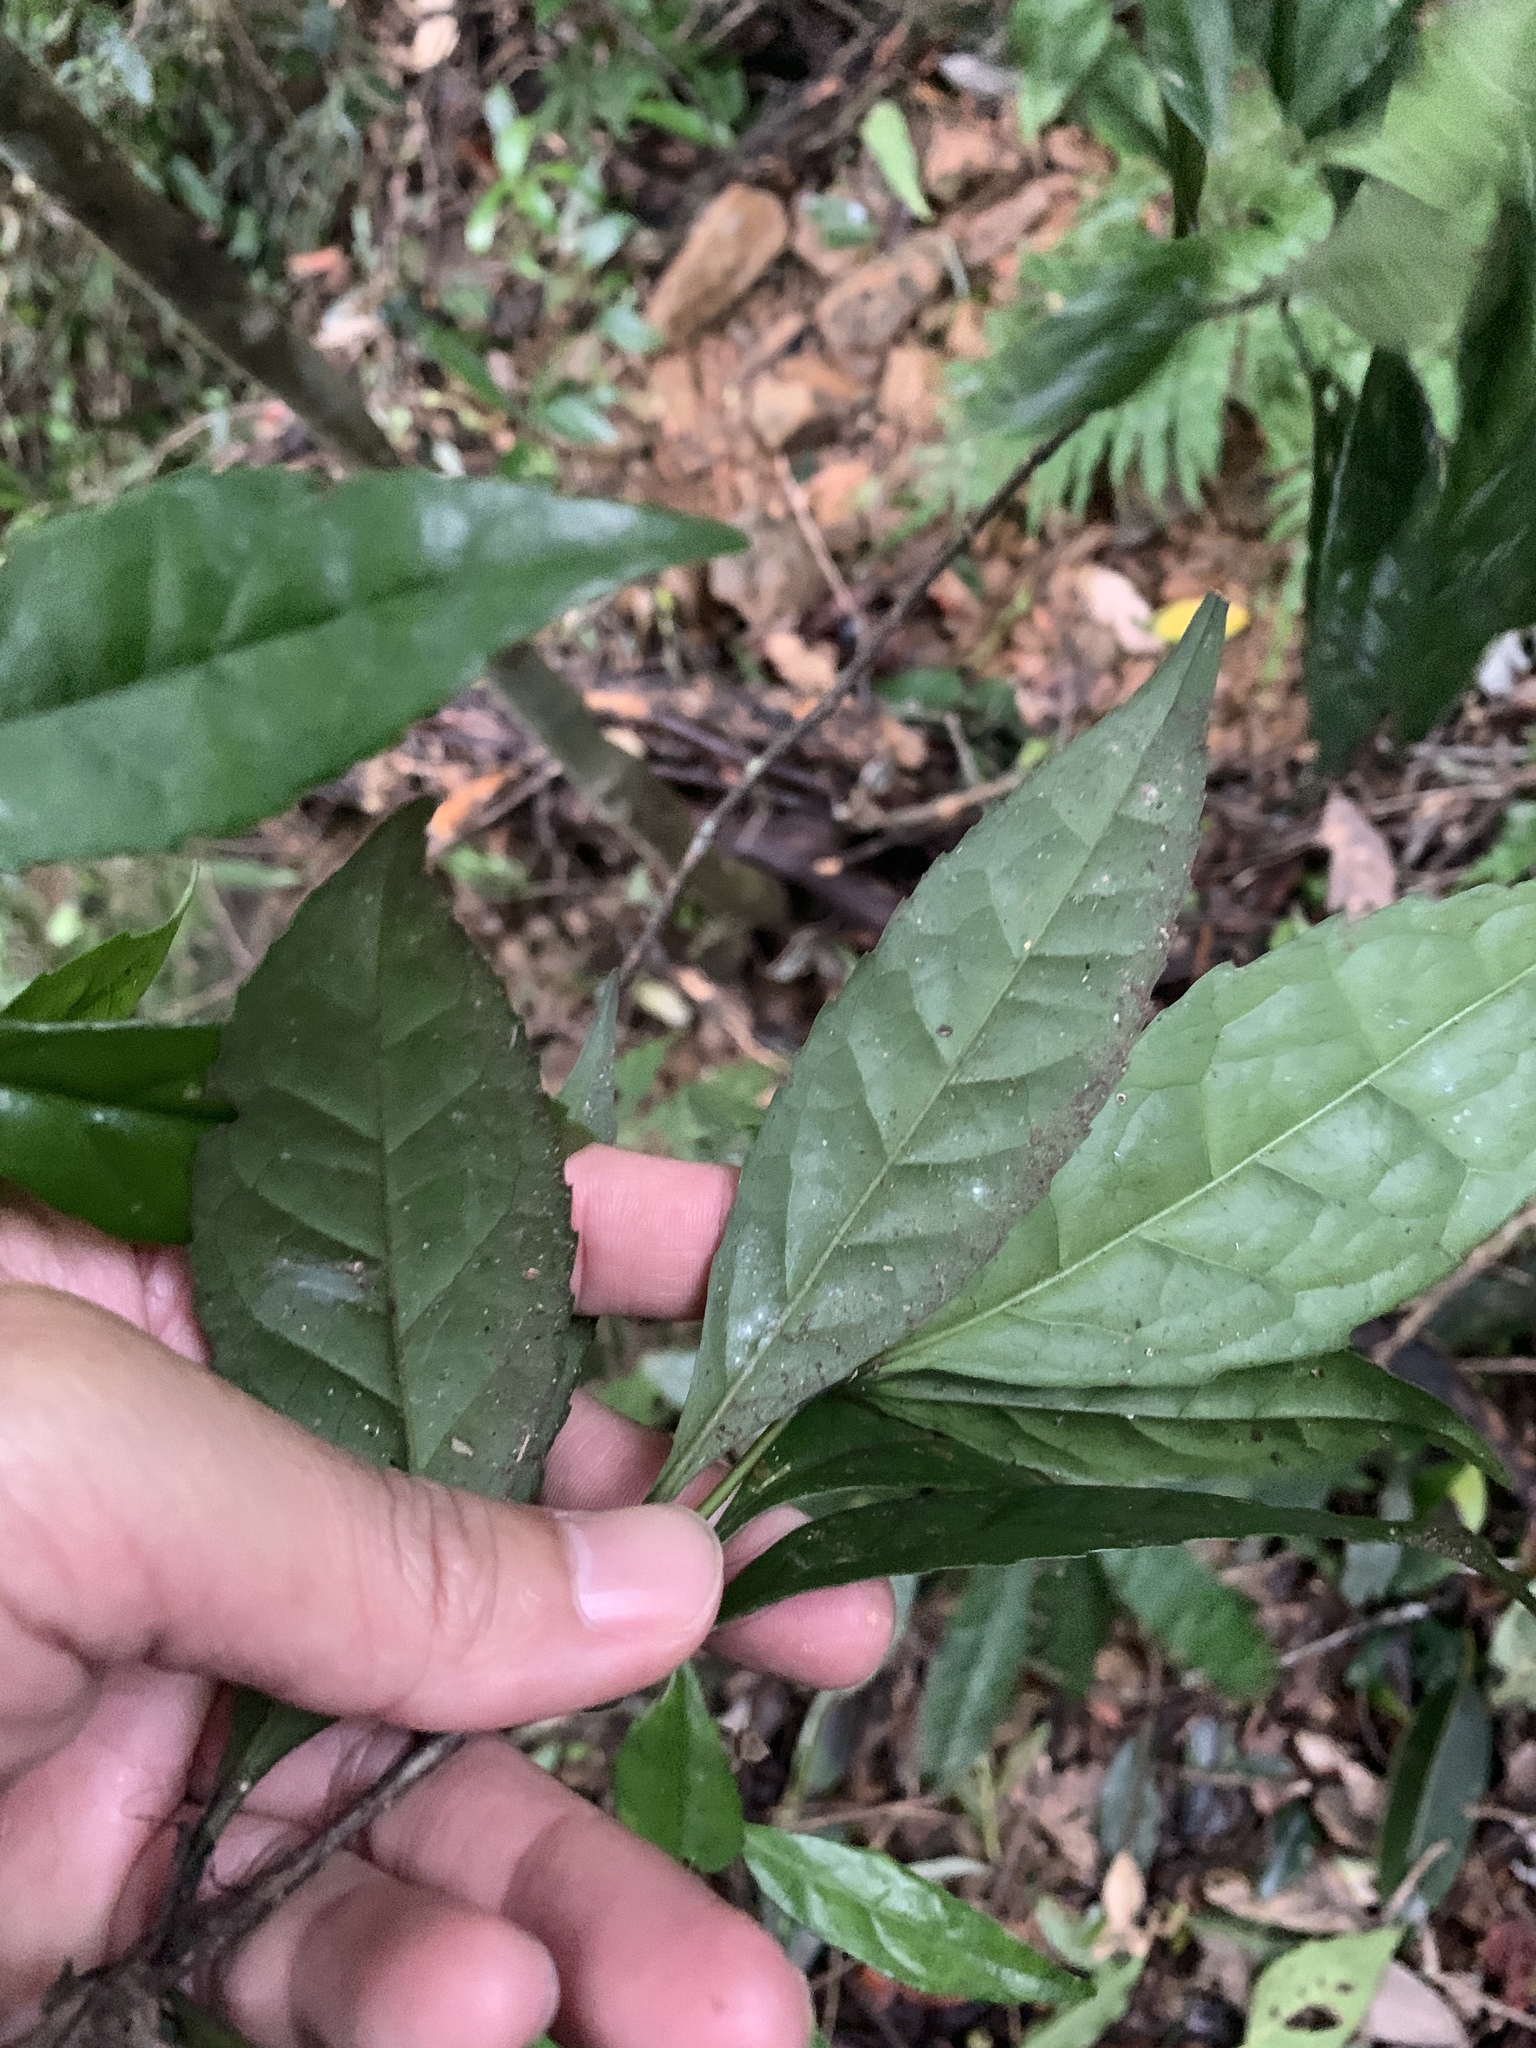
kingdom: Plantae
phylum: Tracheophyta
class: Magnoliopsida
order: Ericales
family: Symplocaceae
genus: Symplocos
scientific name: Symplocos acuminata
